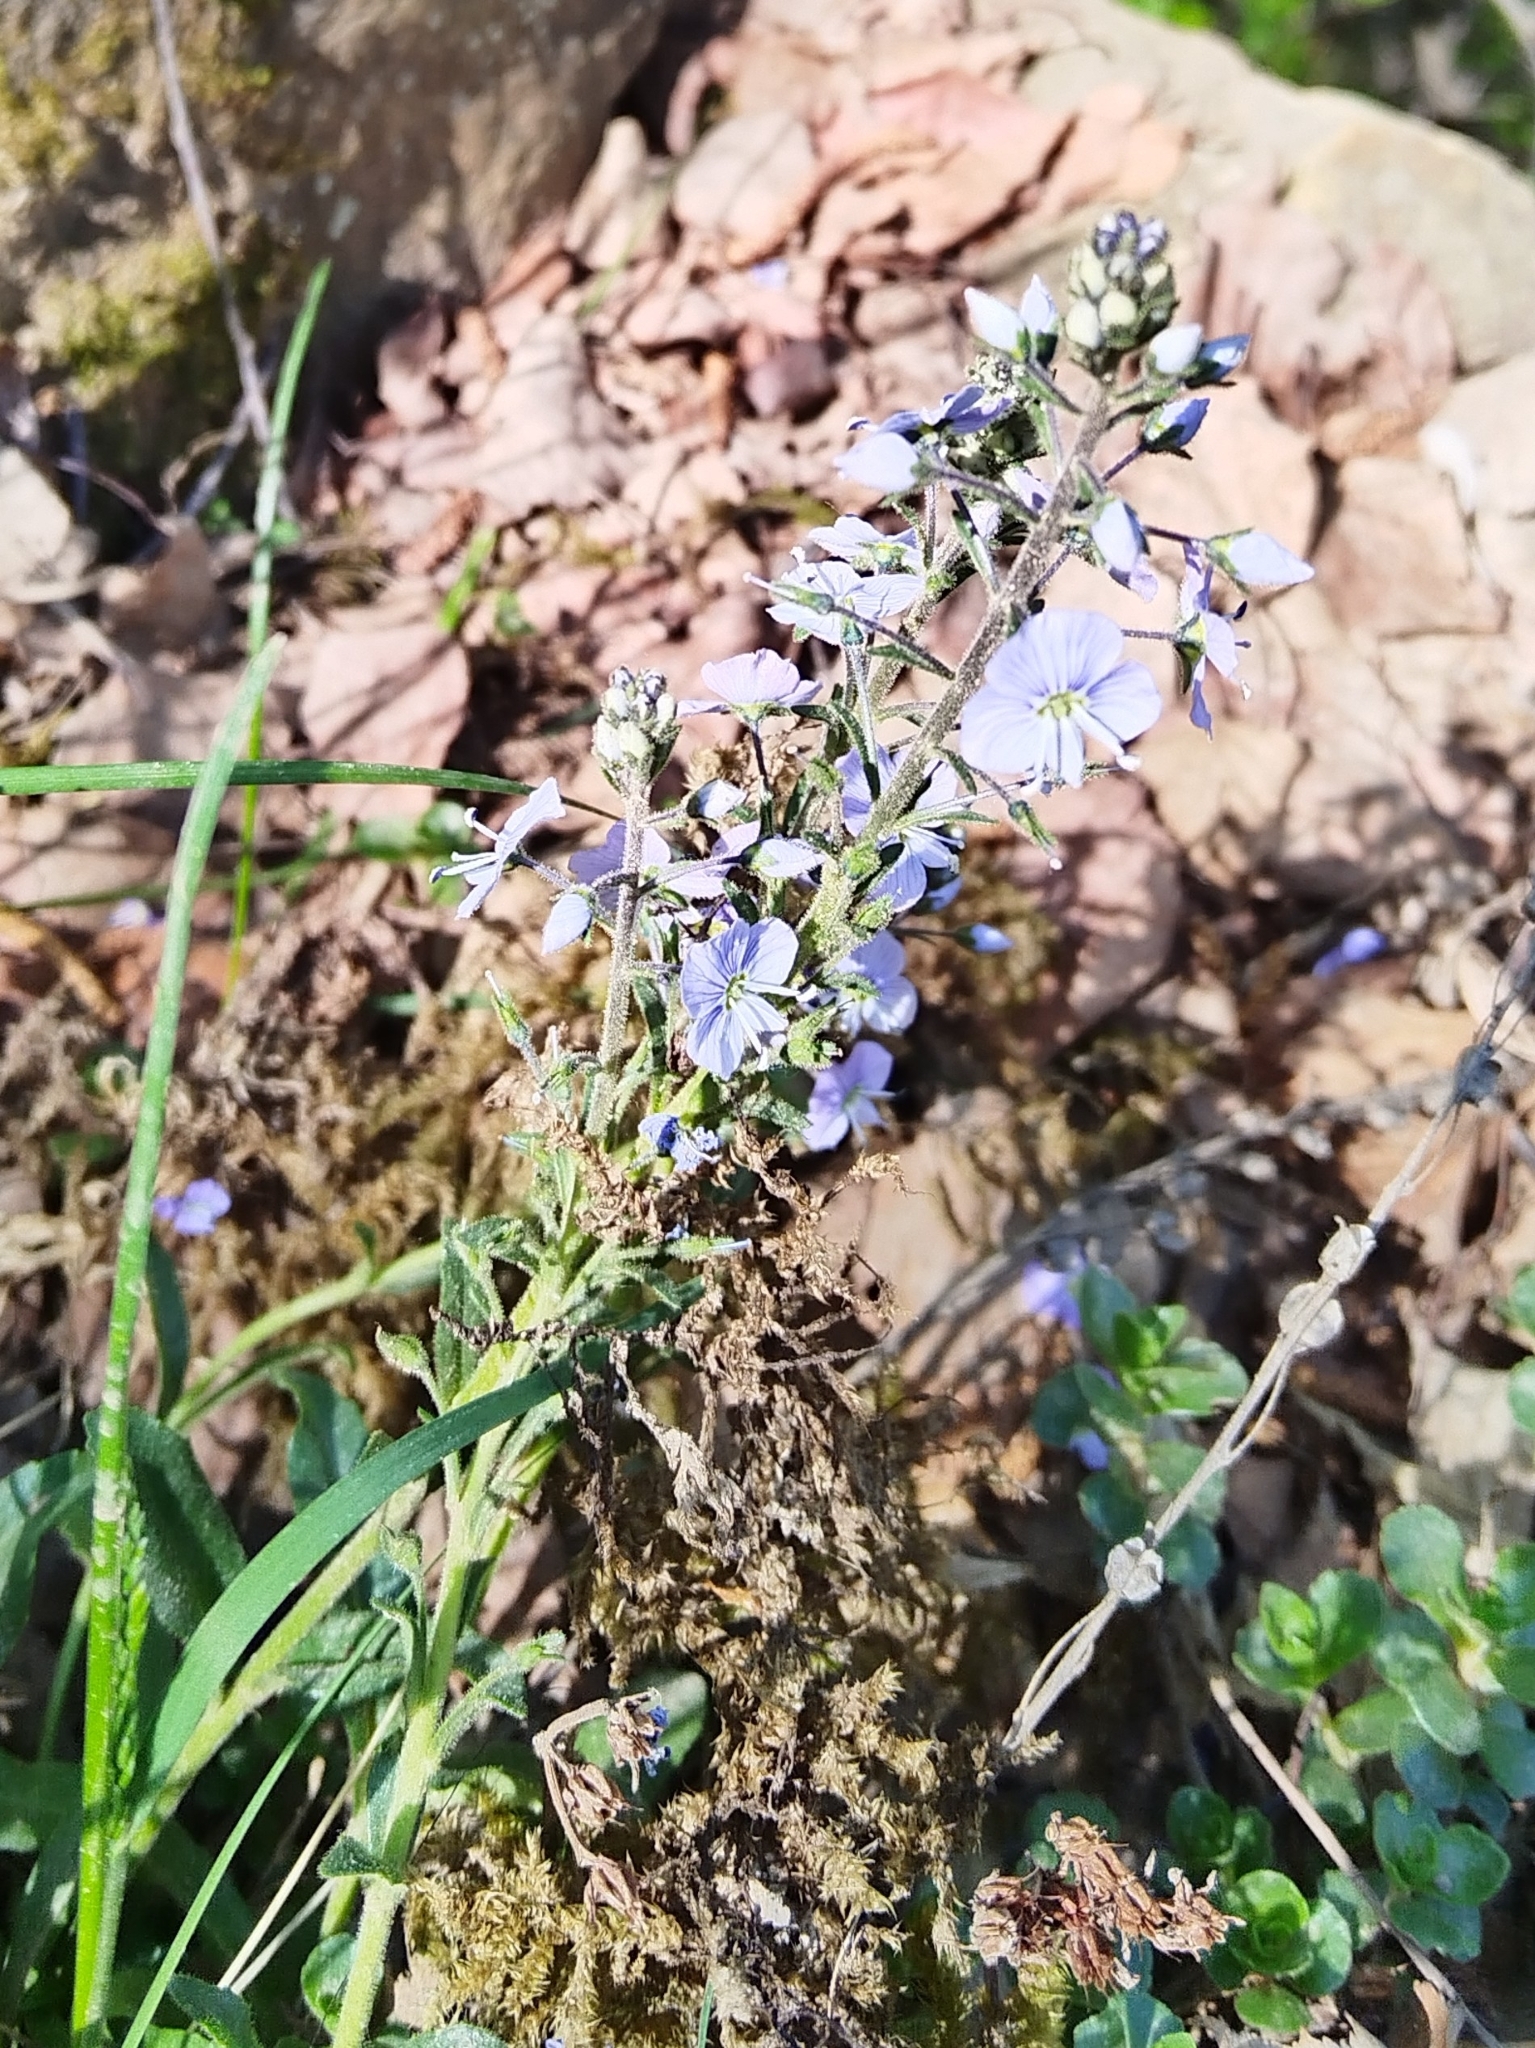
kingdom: Plantae
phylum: Tracheophyta
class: Magnoliopsida
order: Lamiales
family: Plantaginaceae
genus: Veronica
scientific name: Veronica gentianoides
